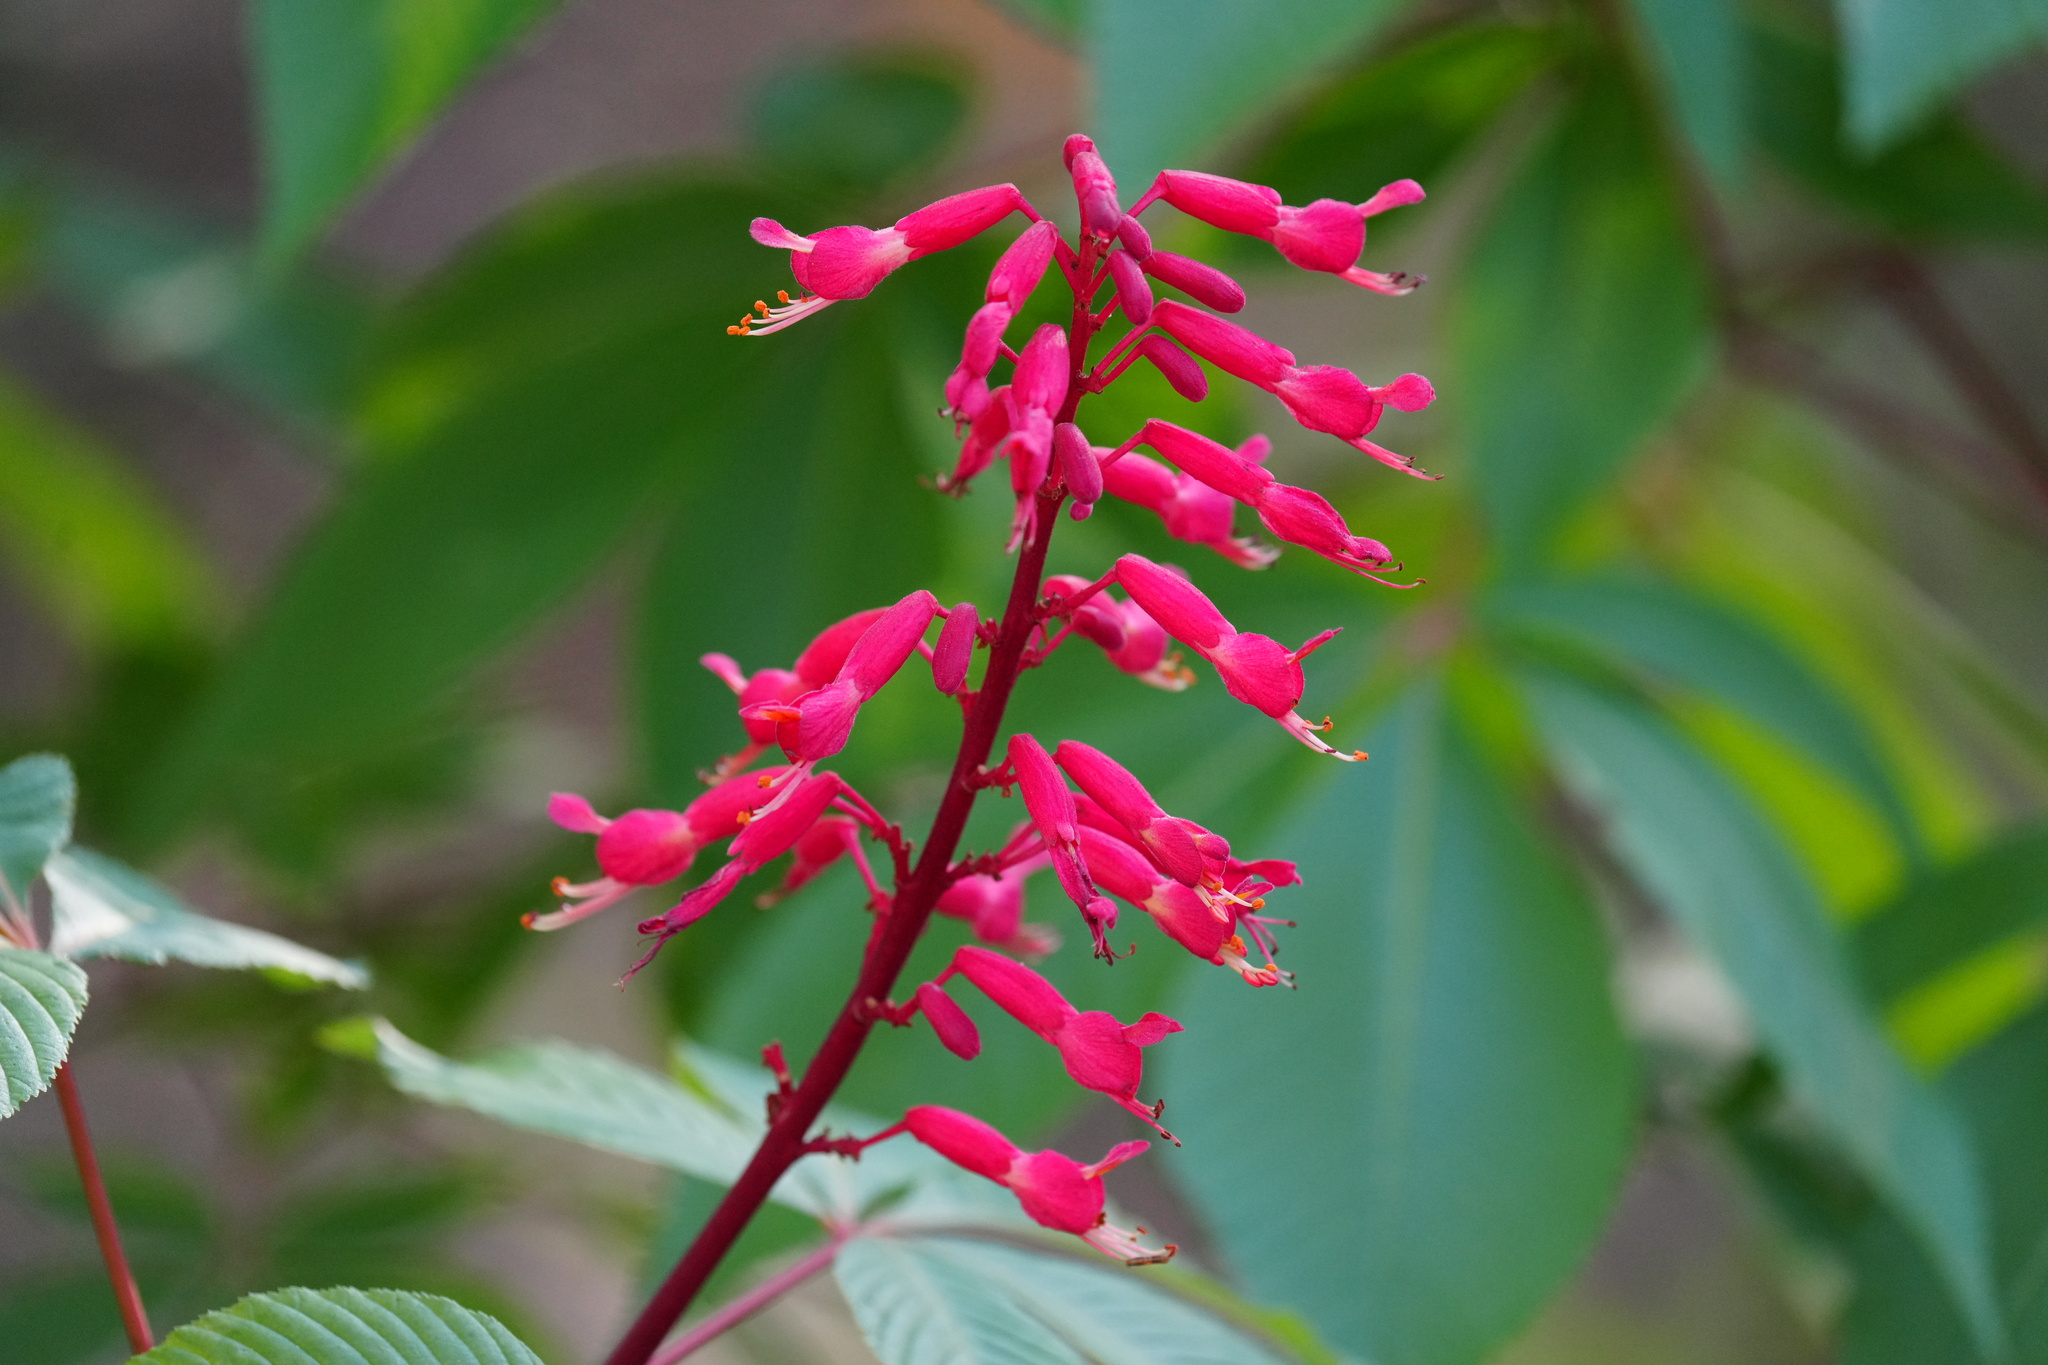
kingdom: Plantae
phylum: Tracheophyta
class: Magnoliopsida
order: Sapindales
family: Sapindaceae
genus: Aesculus
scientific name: Aesculus pavia
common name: Red buckeye
